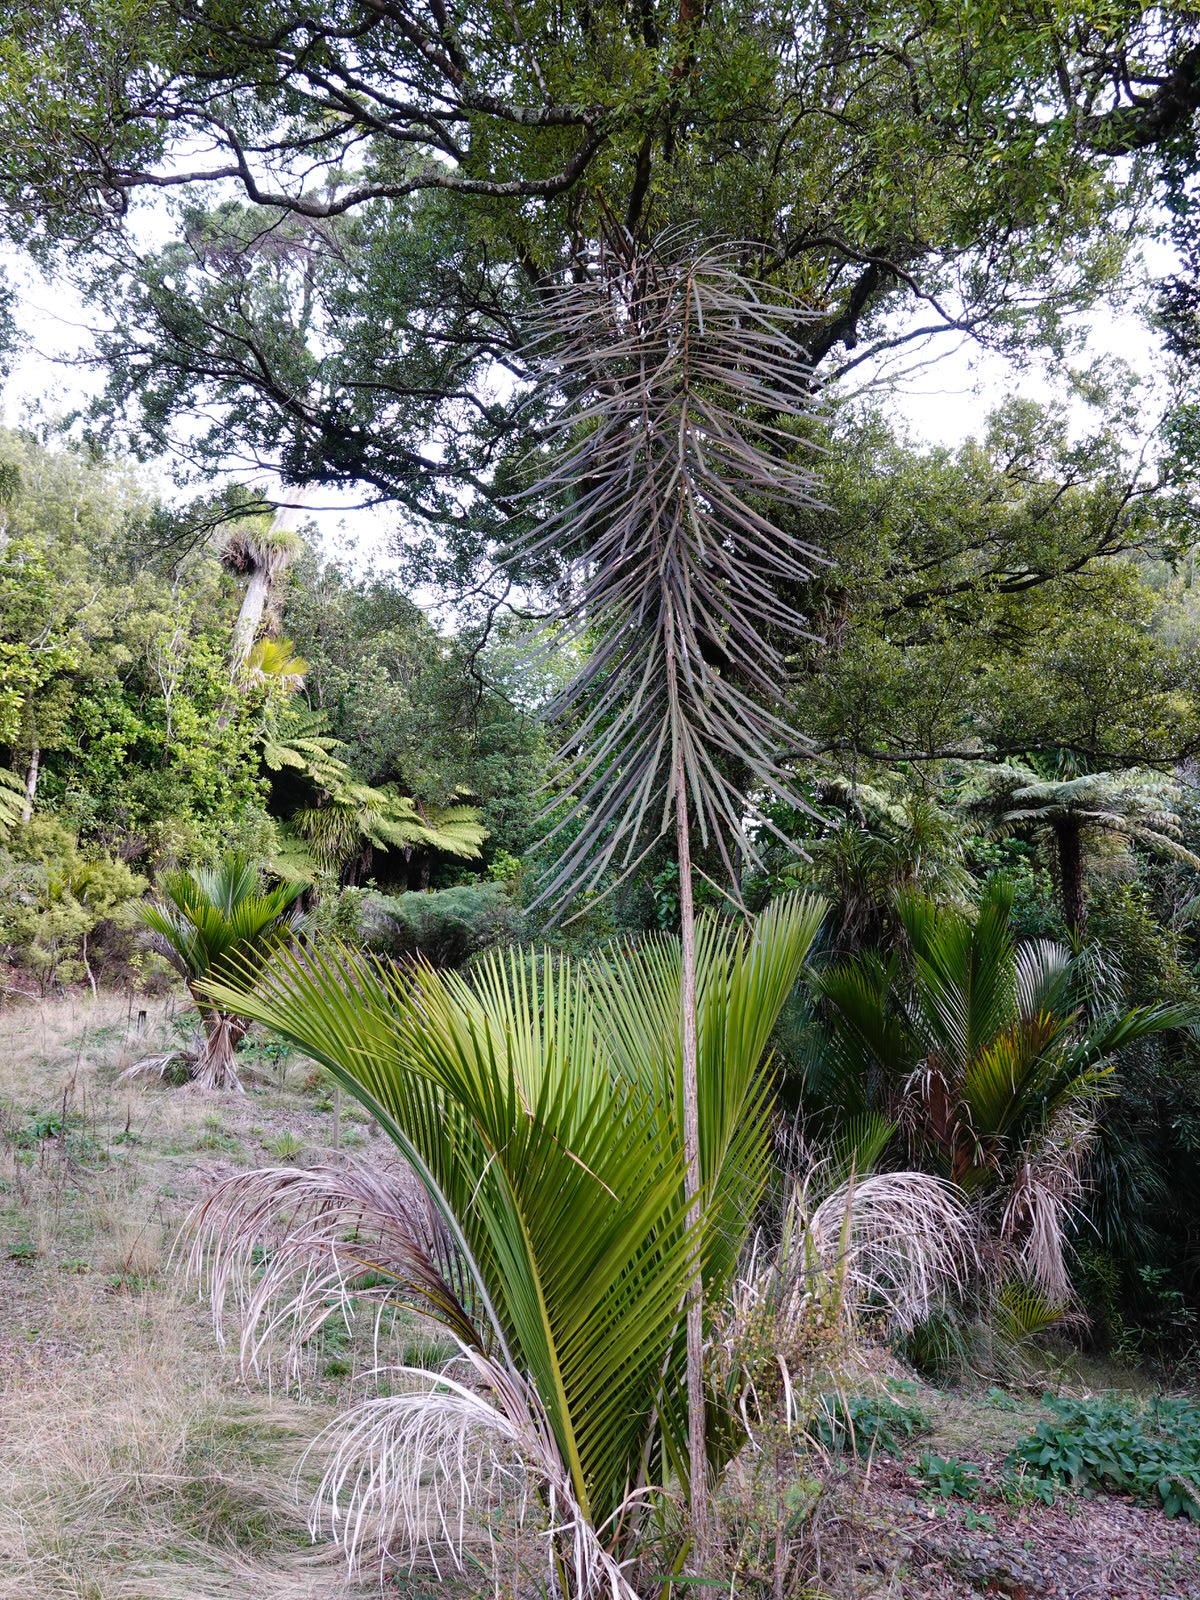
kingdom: Plantae
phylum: Tracheophyta
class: Magnoliopsida
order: Apiales
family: Araliaceae
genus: Pseudopanax
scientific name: Pseudopanax crassifolius
